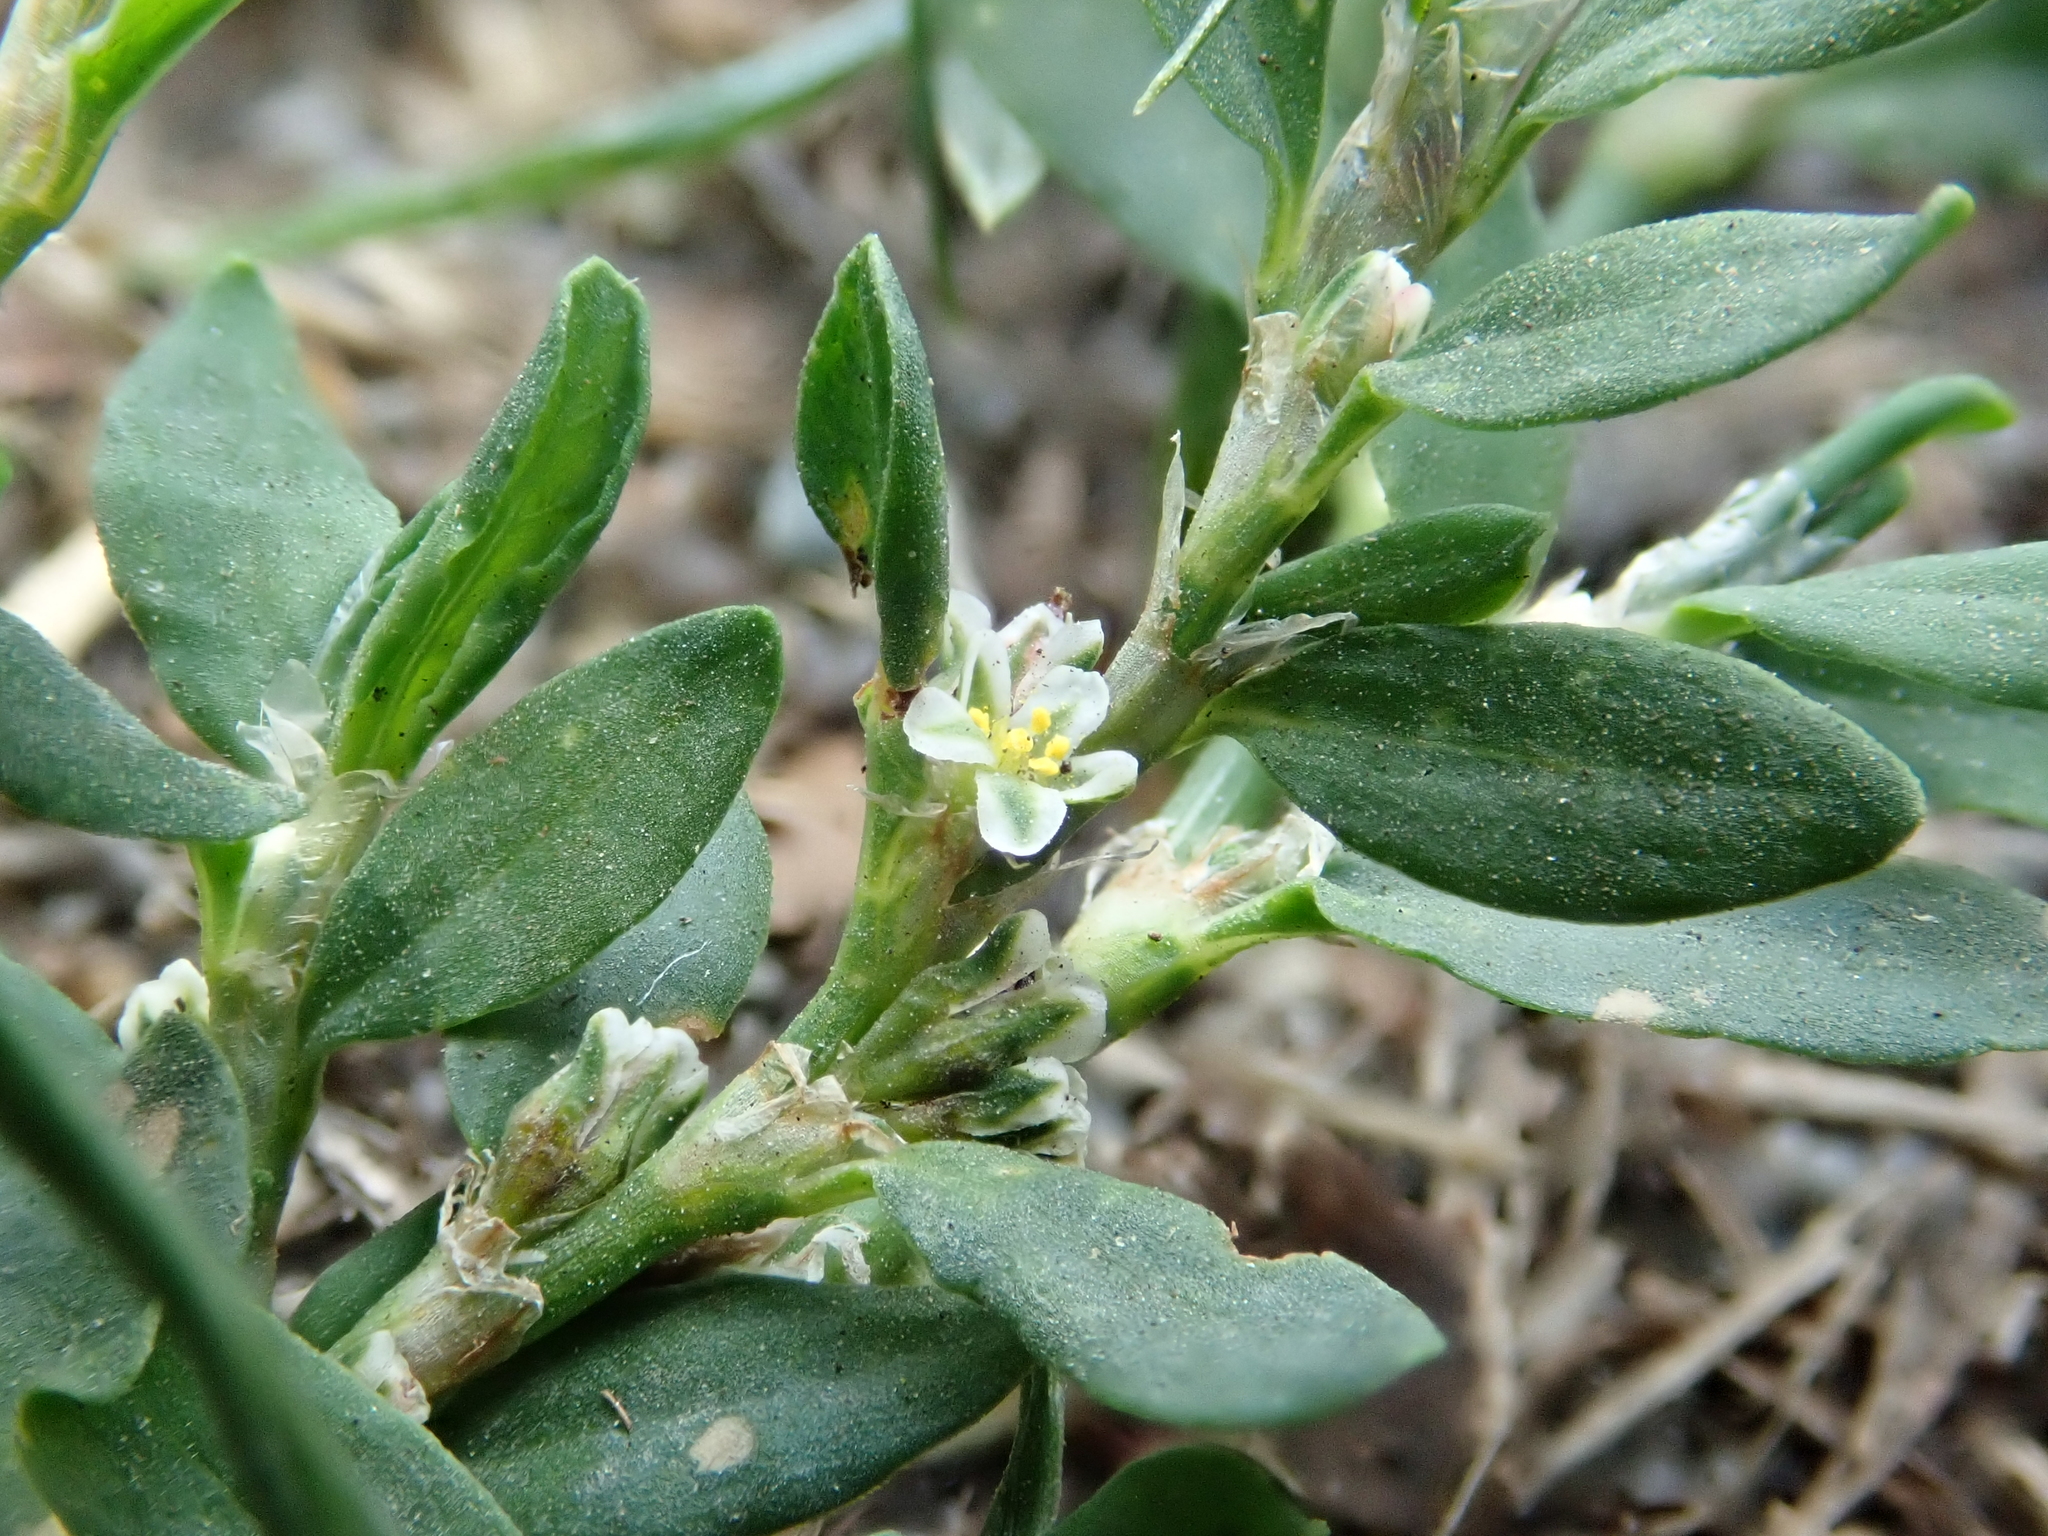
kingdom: Plantae
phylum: Tracheophyta
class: Magnoliopsida
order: Caryophyllales
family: Polygonaceae
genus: Polygonum
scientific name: Polygonum aviculare
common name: Prostrate knotweed
